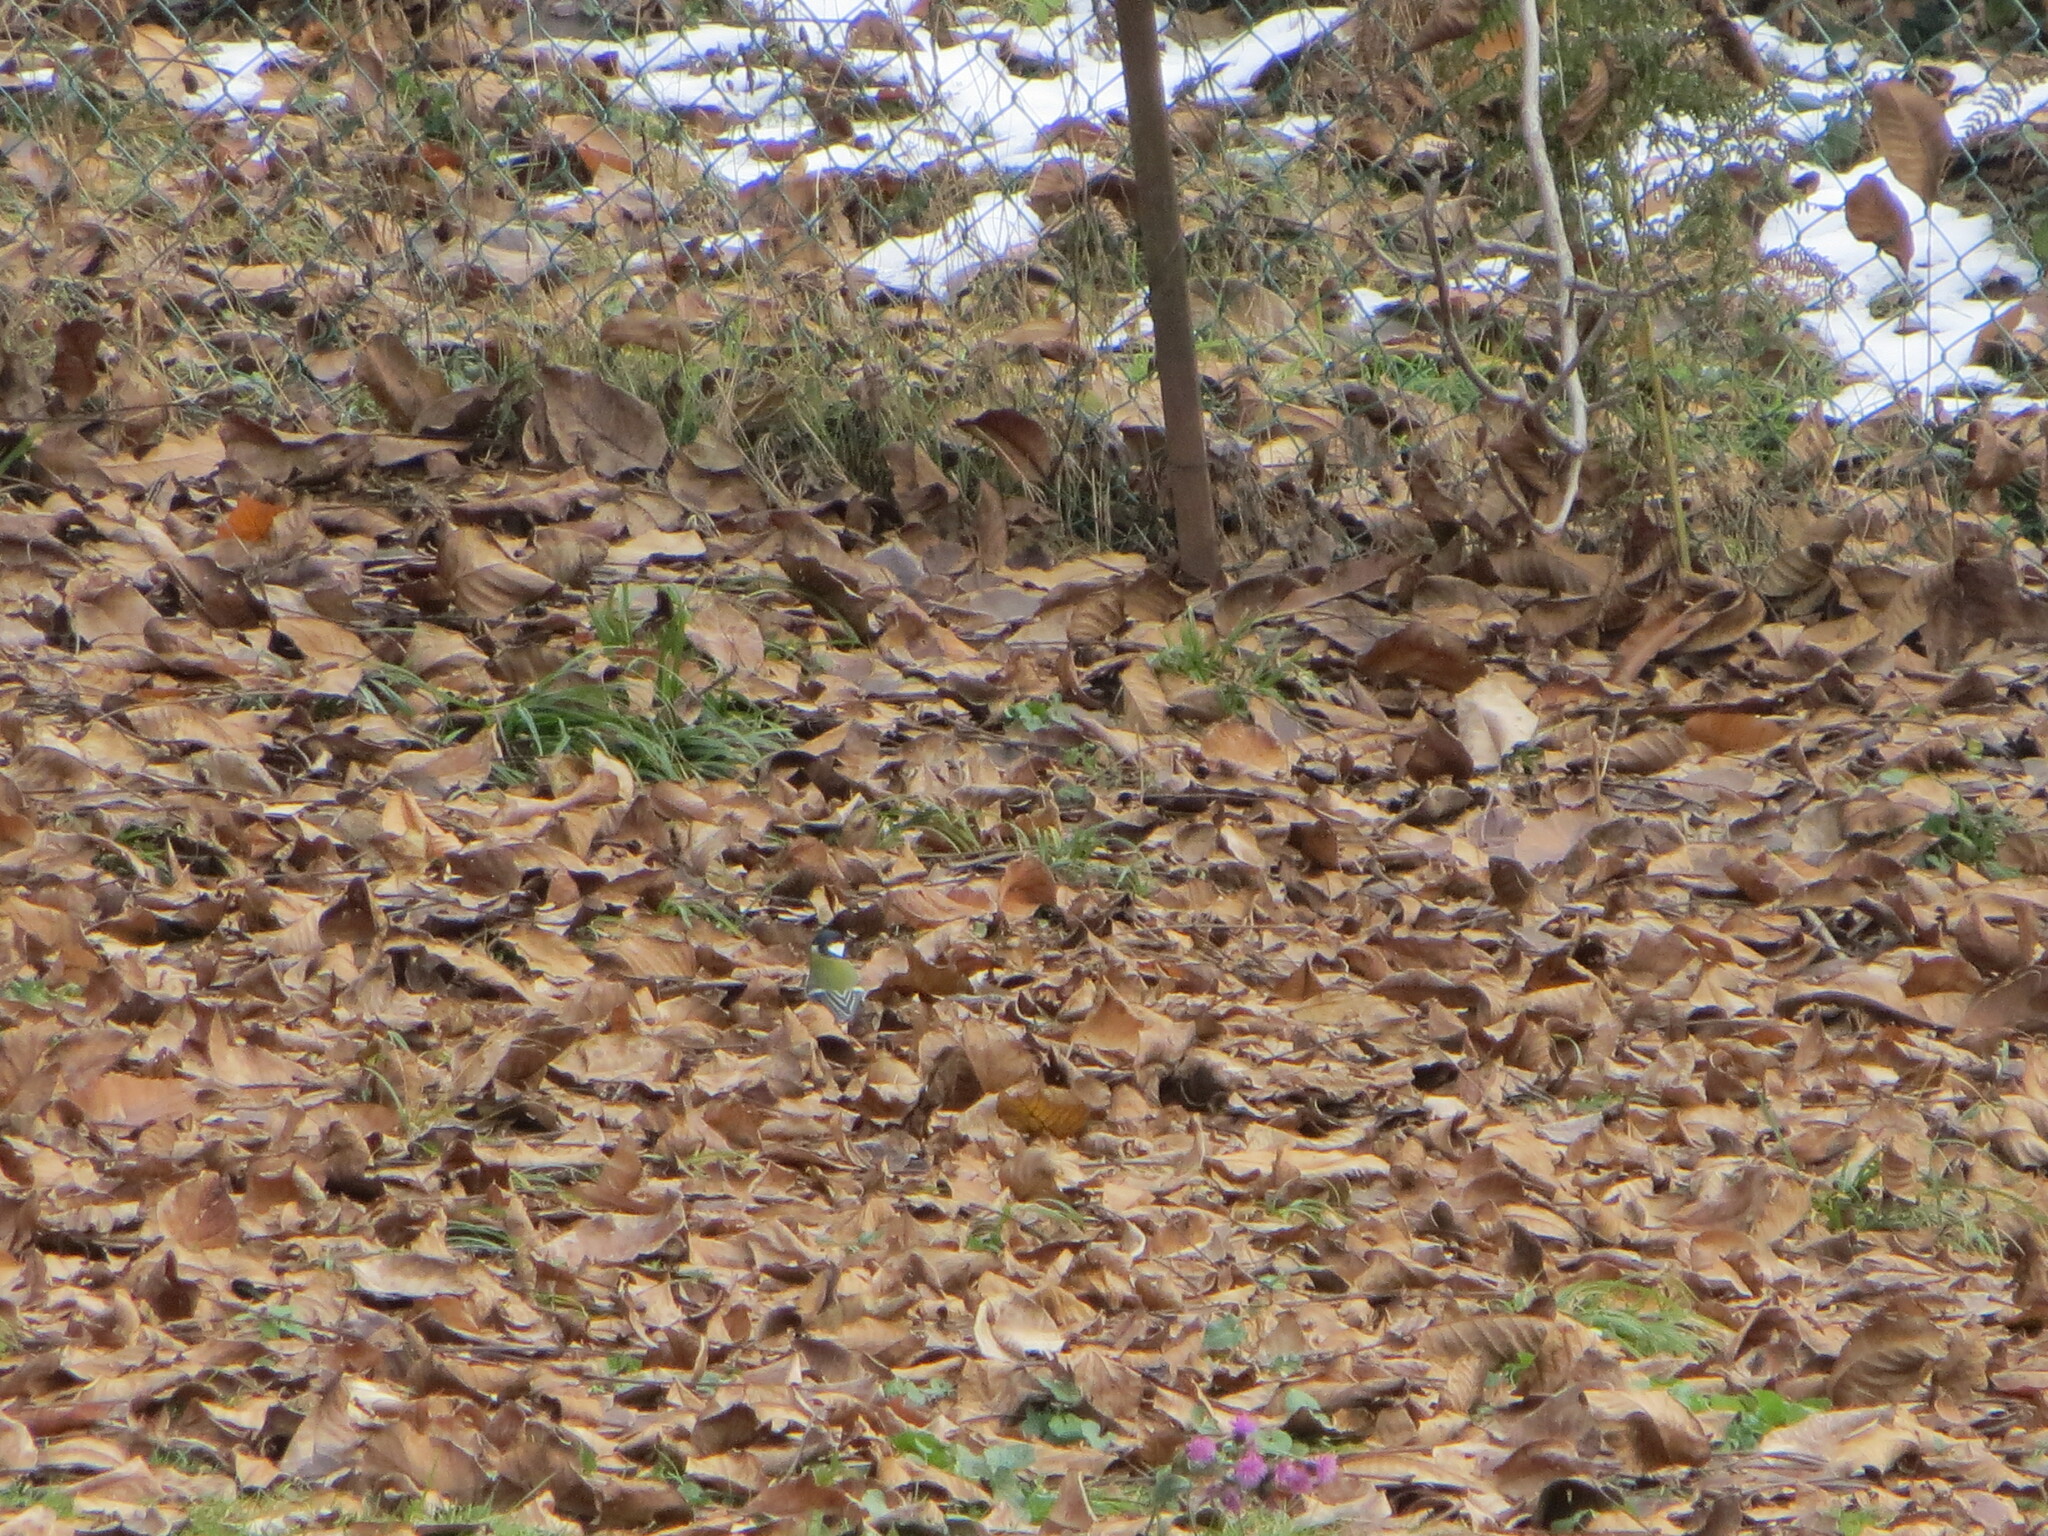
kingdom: Animalia
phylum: Chordata
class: Aves
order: Passeriformes
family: Paridae
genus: Parus
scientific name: Parus major
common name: Great tit
